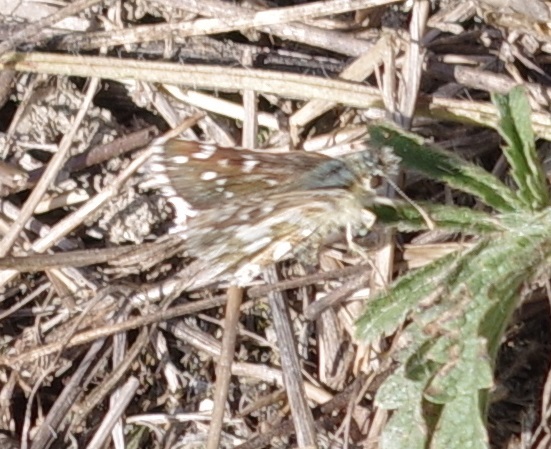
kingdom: Animalia
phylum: Arthropoda
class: Insecta
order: Lepidoptera
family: Hesperiidae
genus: Pyrgus
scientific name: Pyrgus armoricanus
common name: Oberthür's grizzled skipper
